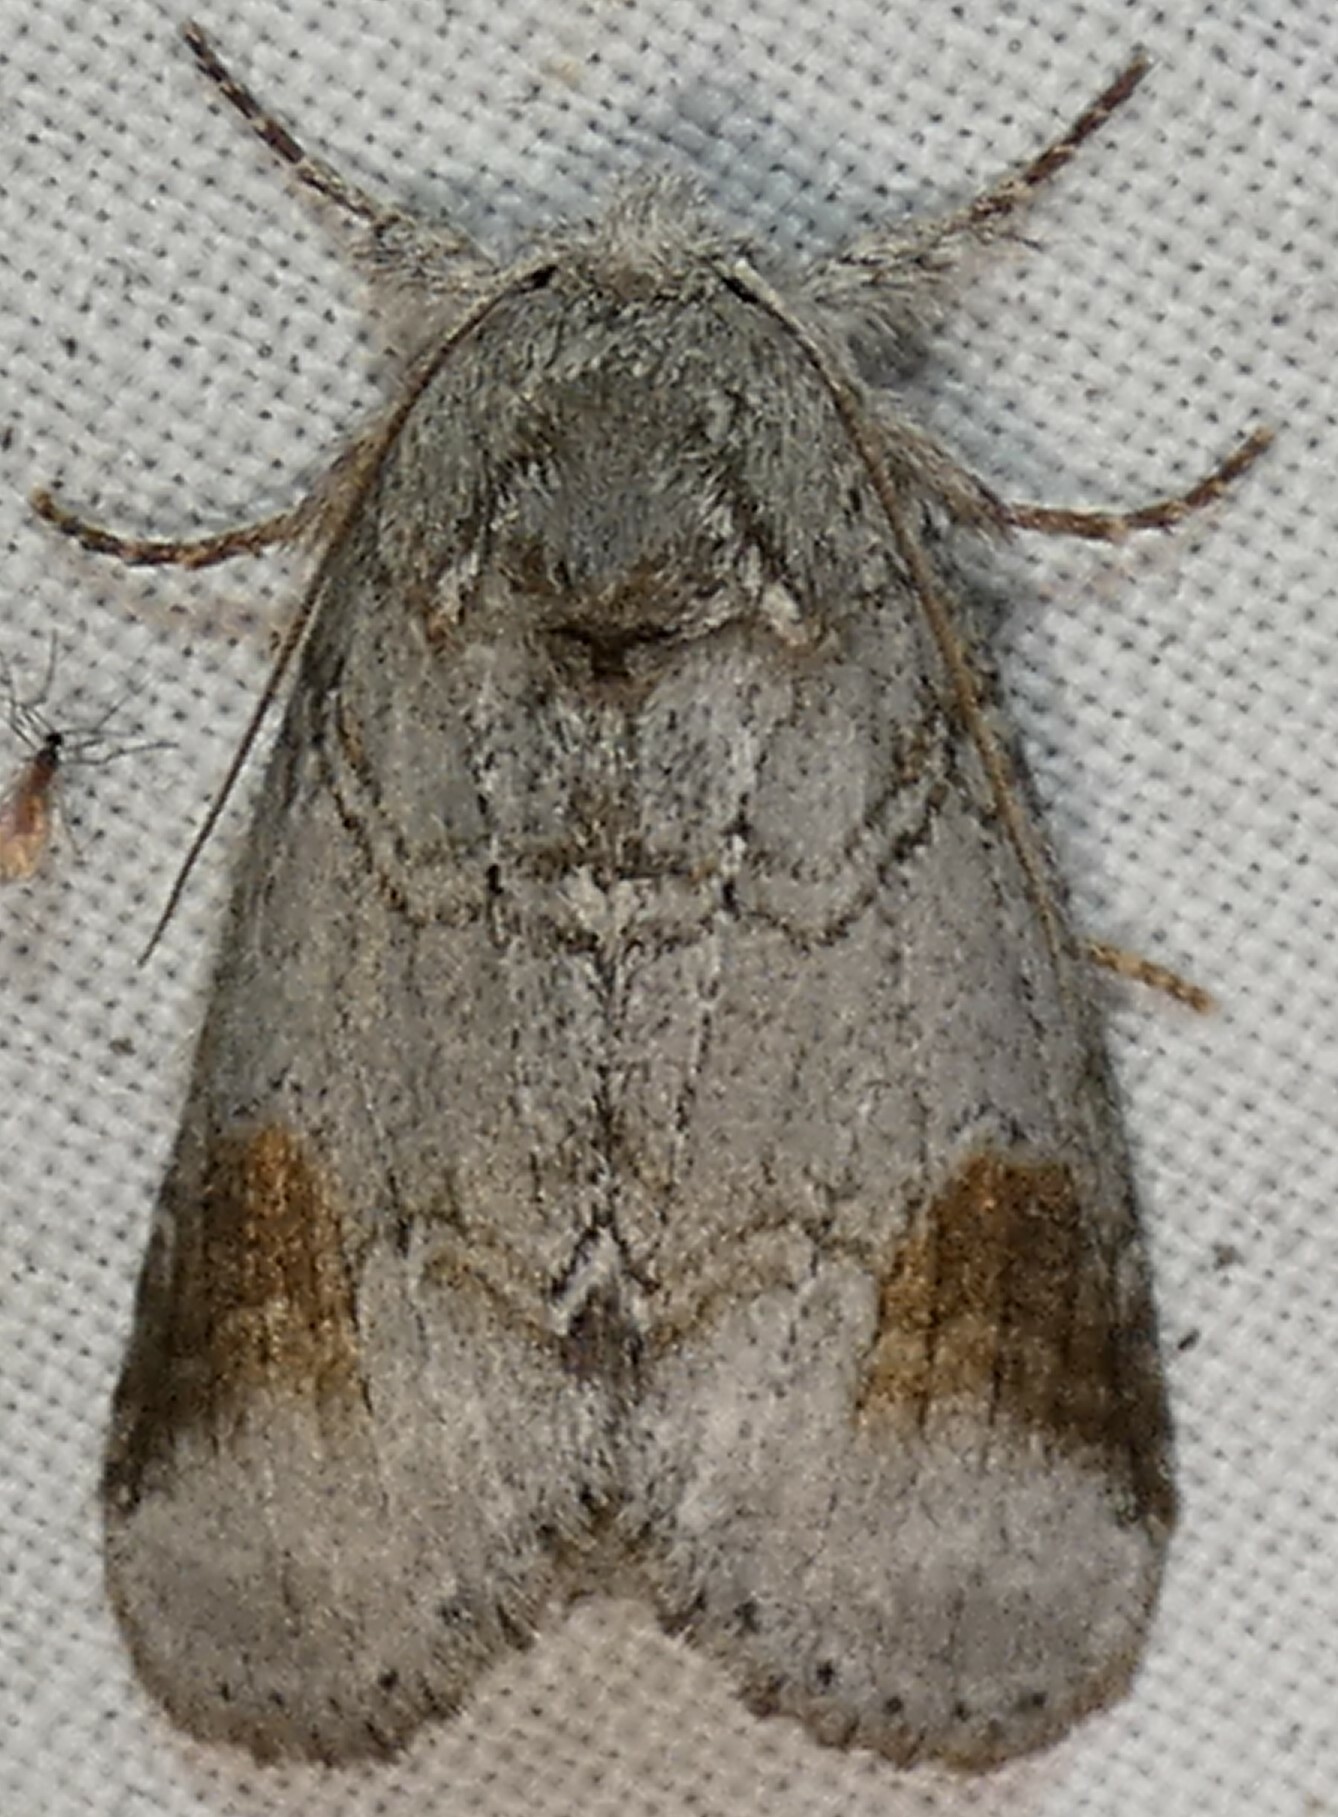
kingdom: Animalia
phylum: Arthropoda
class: Insecta
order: Lepidoptera
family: Notodontidae
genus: Lochmaeus
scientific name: Lochmaeus bilineata
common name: Double-lined prominent
